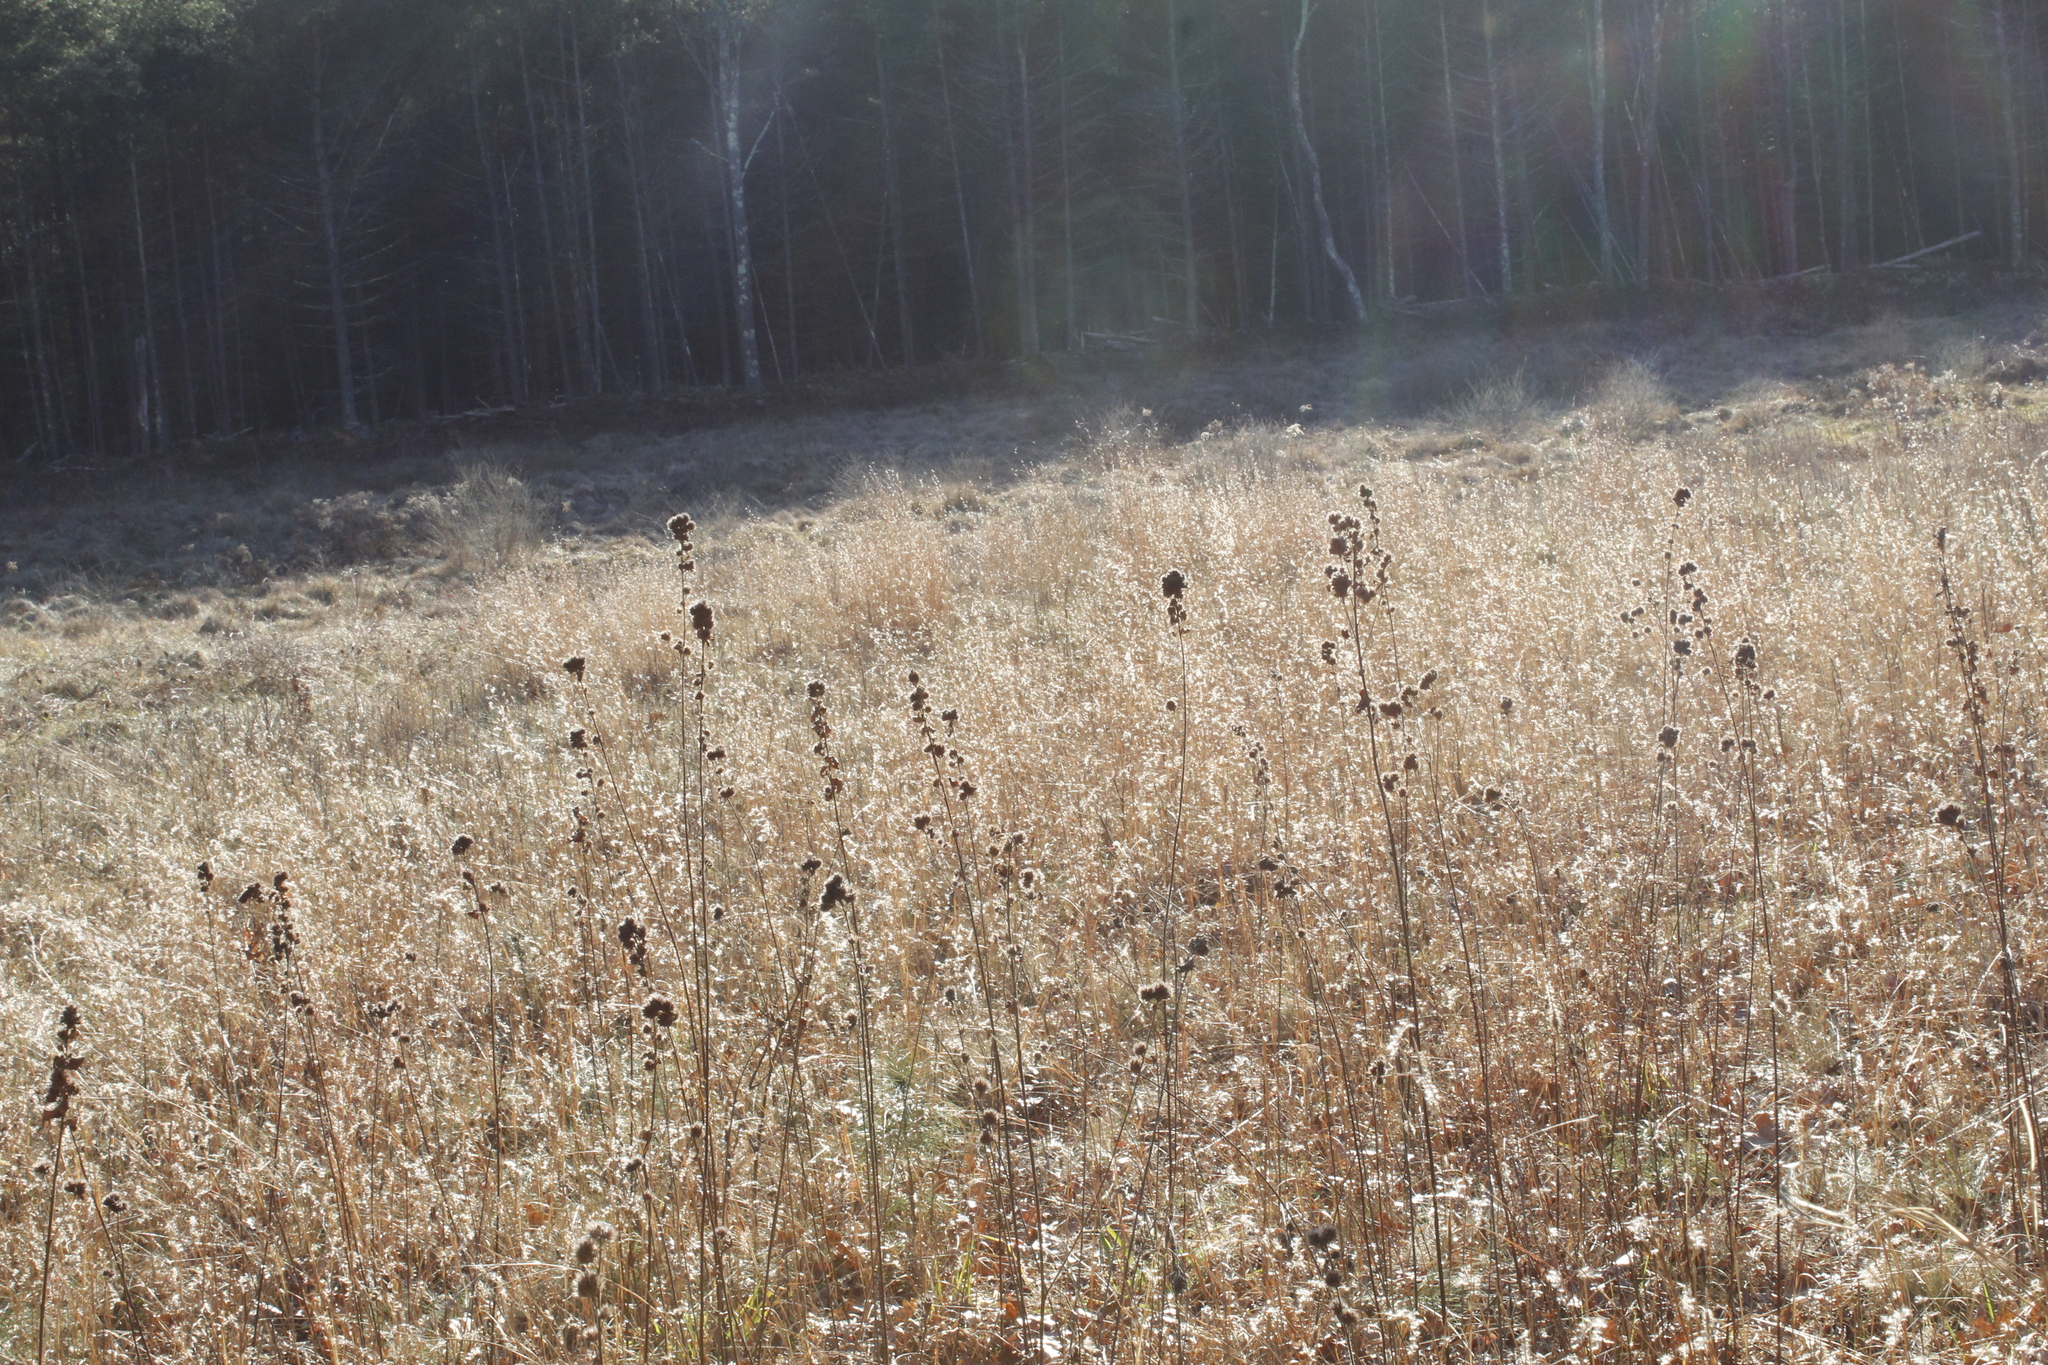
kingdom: Plantae
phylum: Tracheophyta
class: Magnoliopsida
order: Fabales
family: Fabaceae
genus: Lespedeza
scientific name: Lespedeza capitata
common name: Dusty clover
